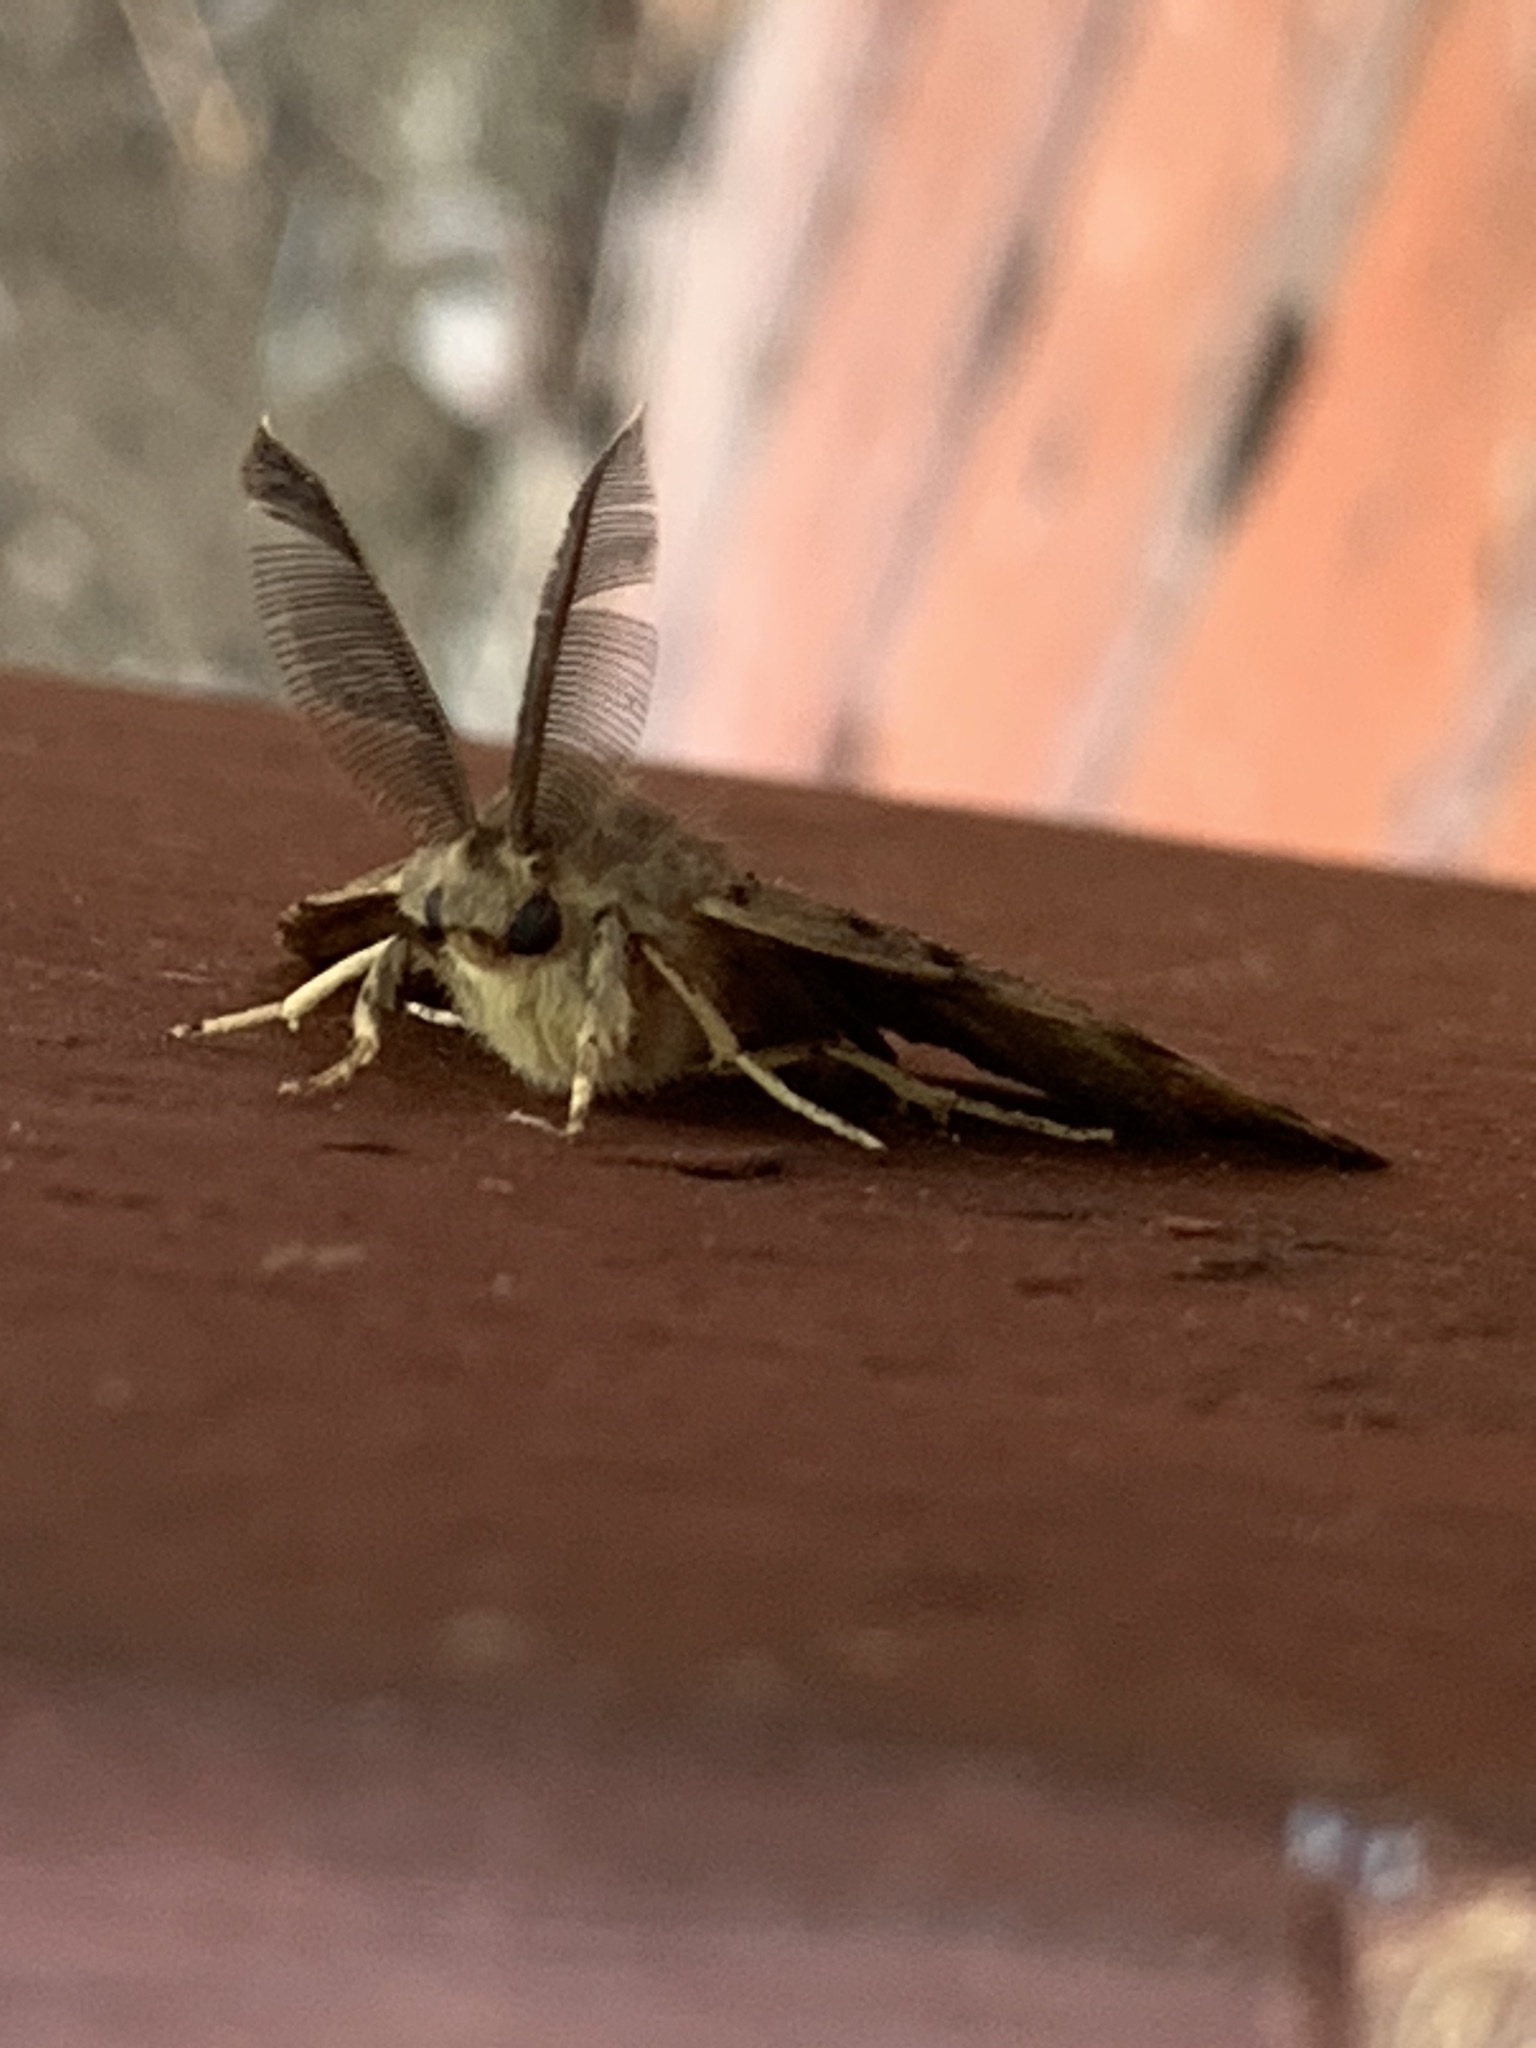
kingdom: Animalia
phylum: Arthropoda
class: Insecta
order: Lepidoptera
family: Erebidae
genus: Lymantria
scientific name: Lymantria dispar
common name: Gypsy moth
